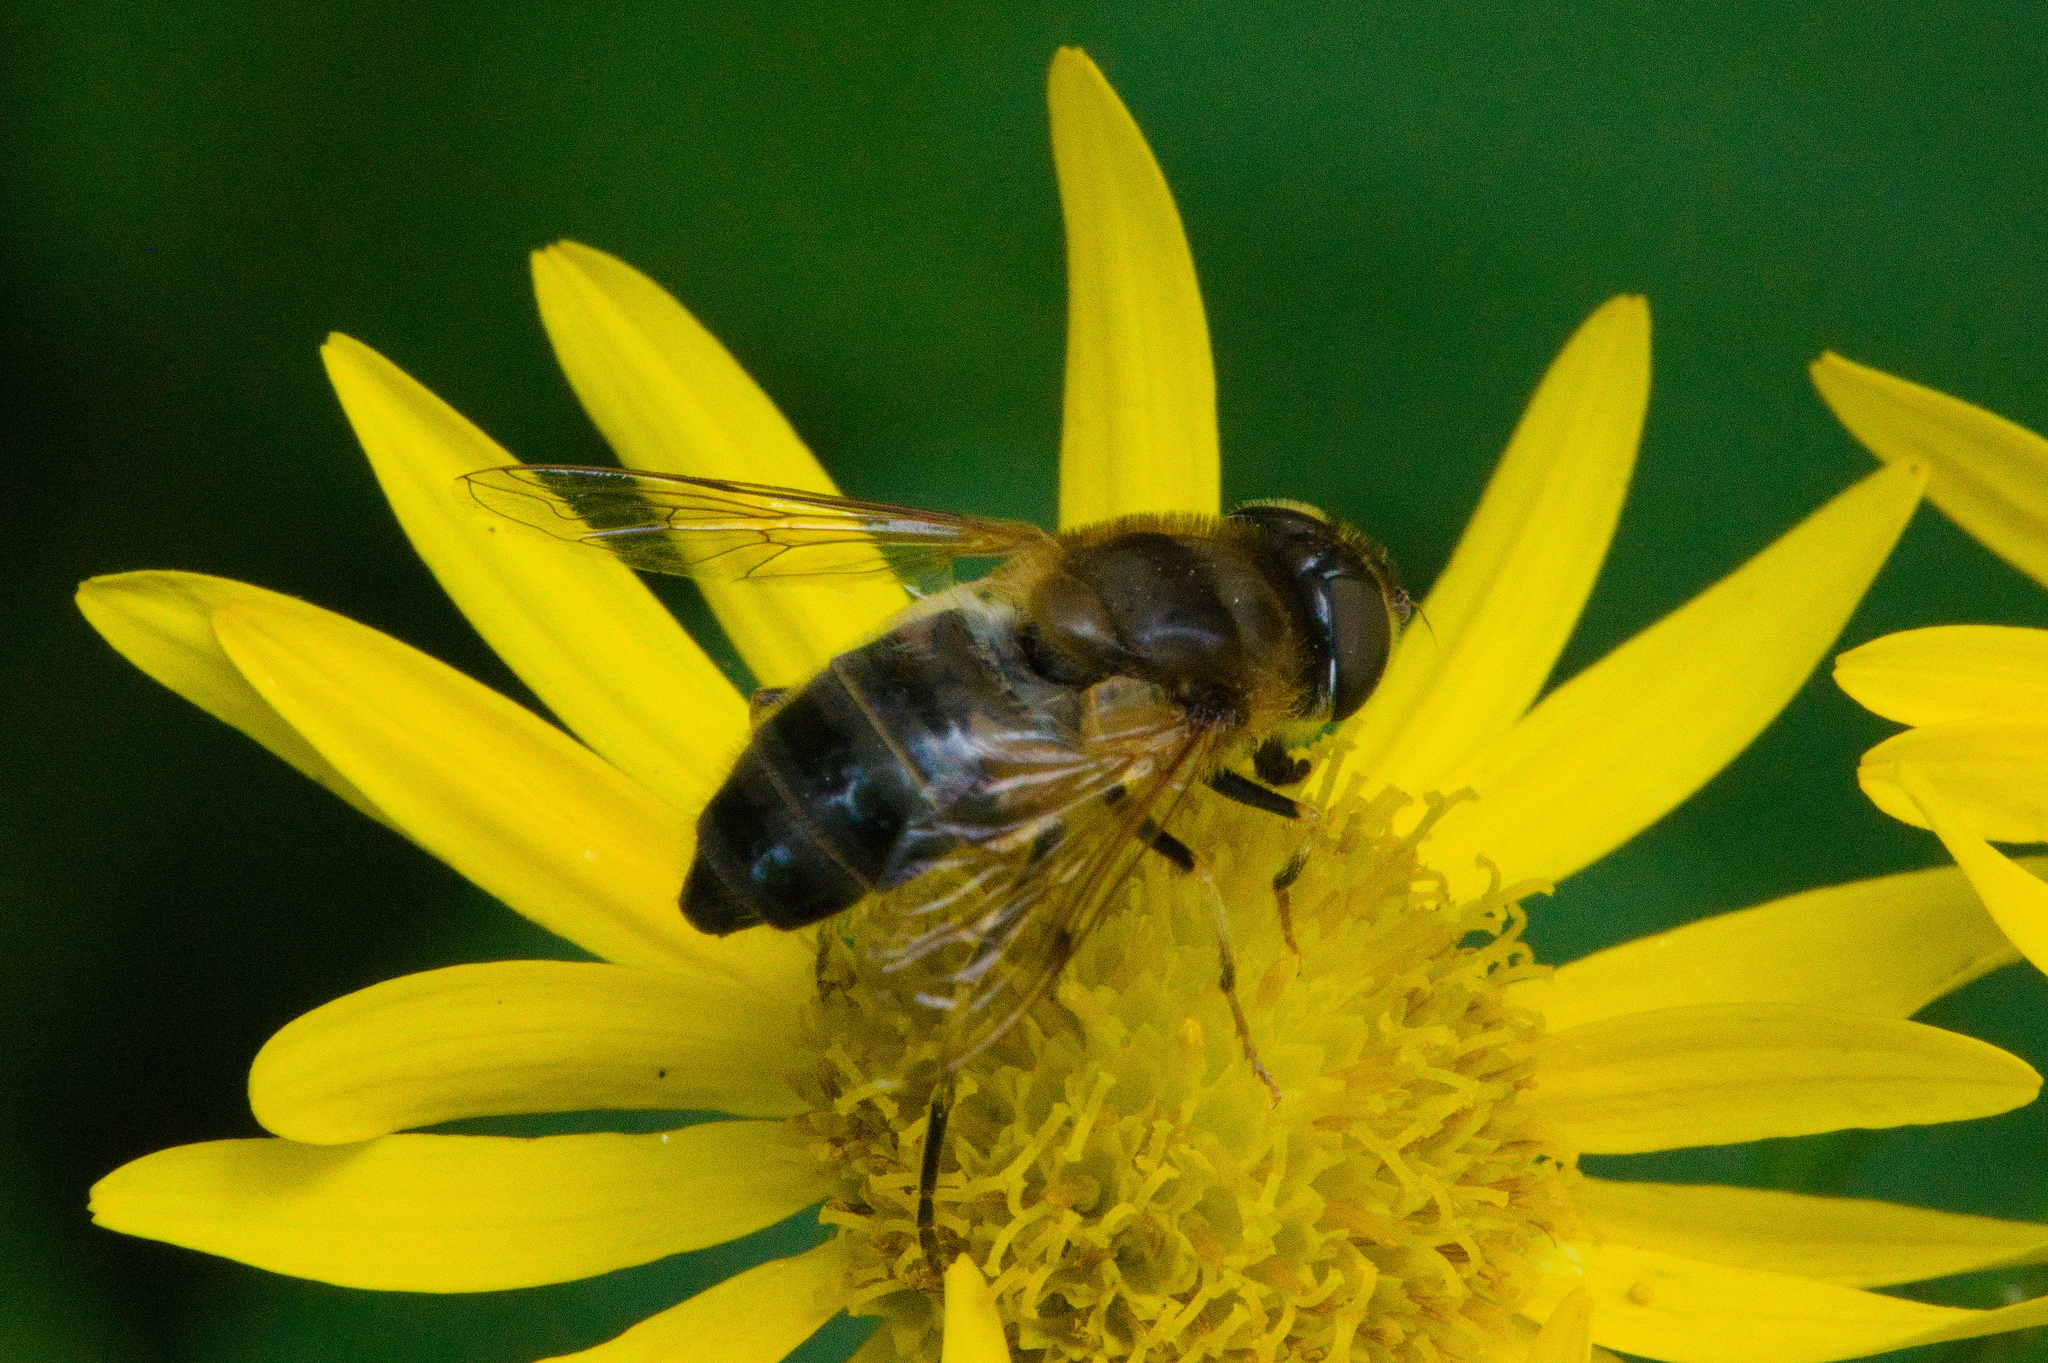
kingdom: Animalia
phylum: Arthropoda
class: Insecta
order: Diptera
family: Syrphidae
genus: Eristalis
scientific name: Eristalis pertinax
